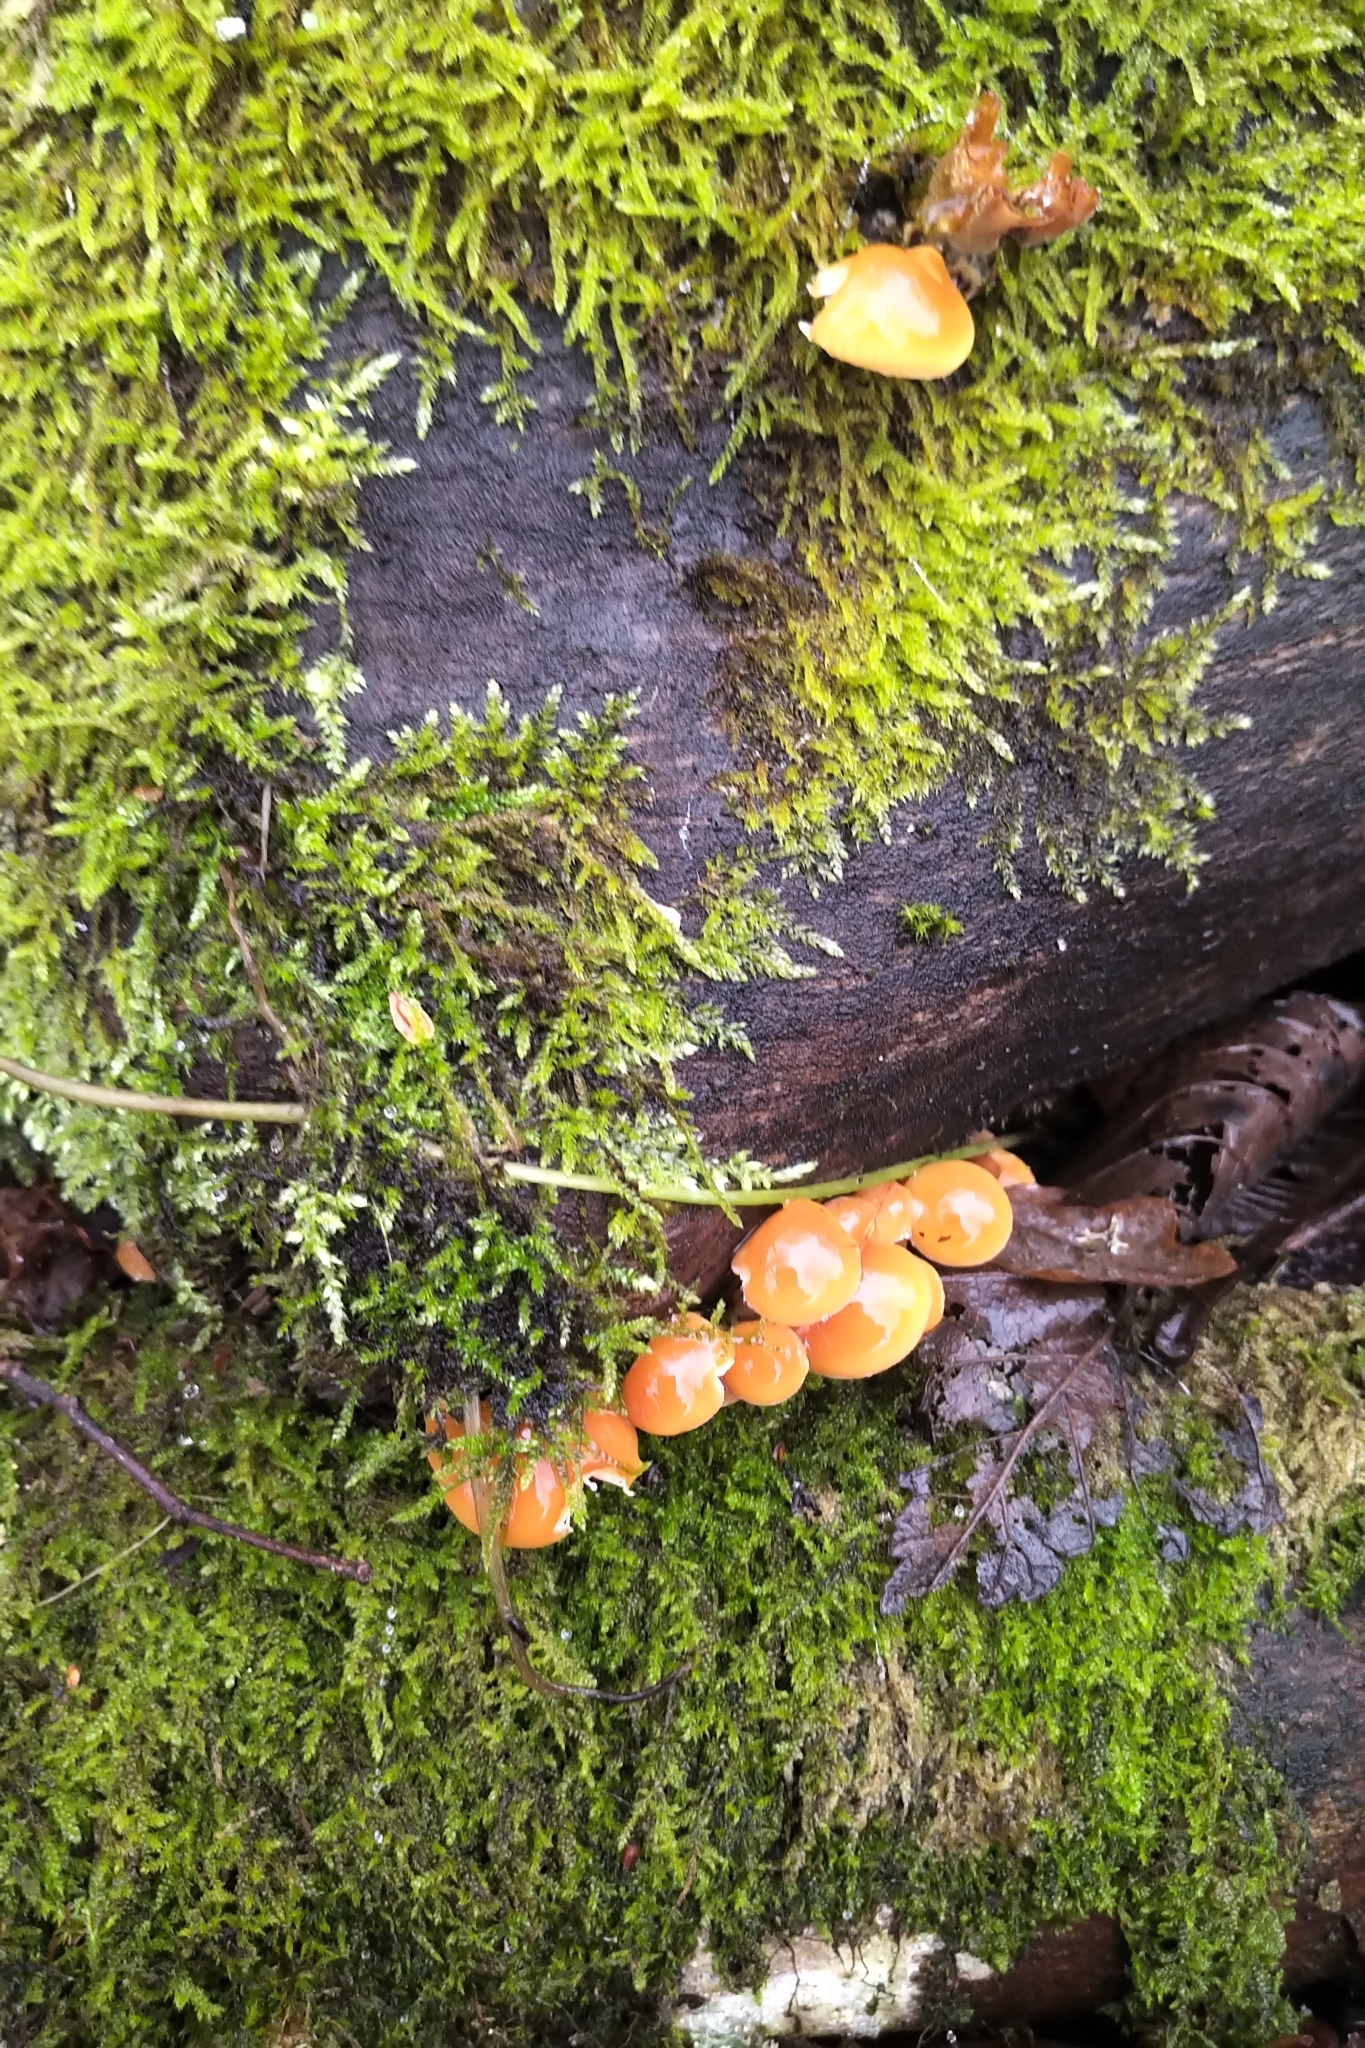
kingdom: Fungi
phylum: Basidiomycota
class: Agaricomycetes
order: Agaricales
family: Physalacriaceae
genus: Flammulina
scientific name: Flammulina
